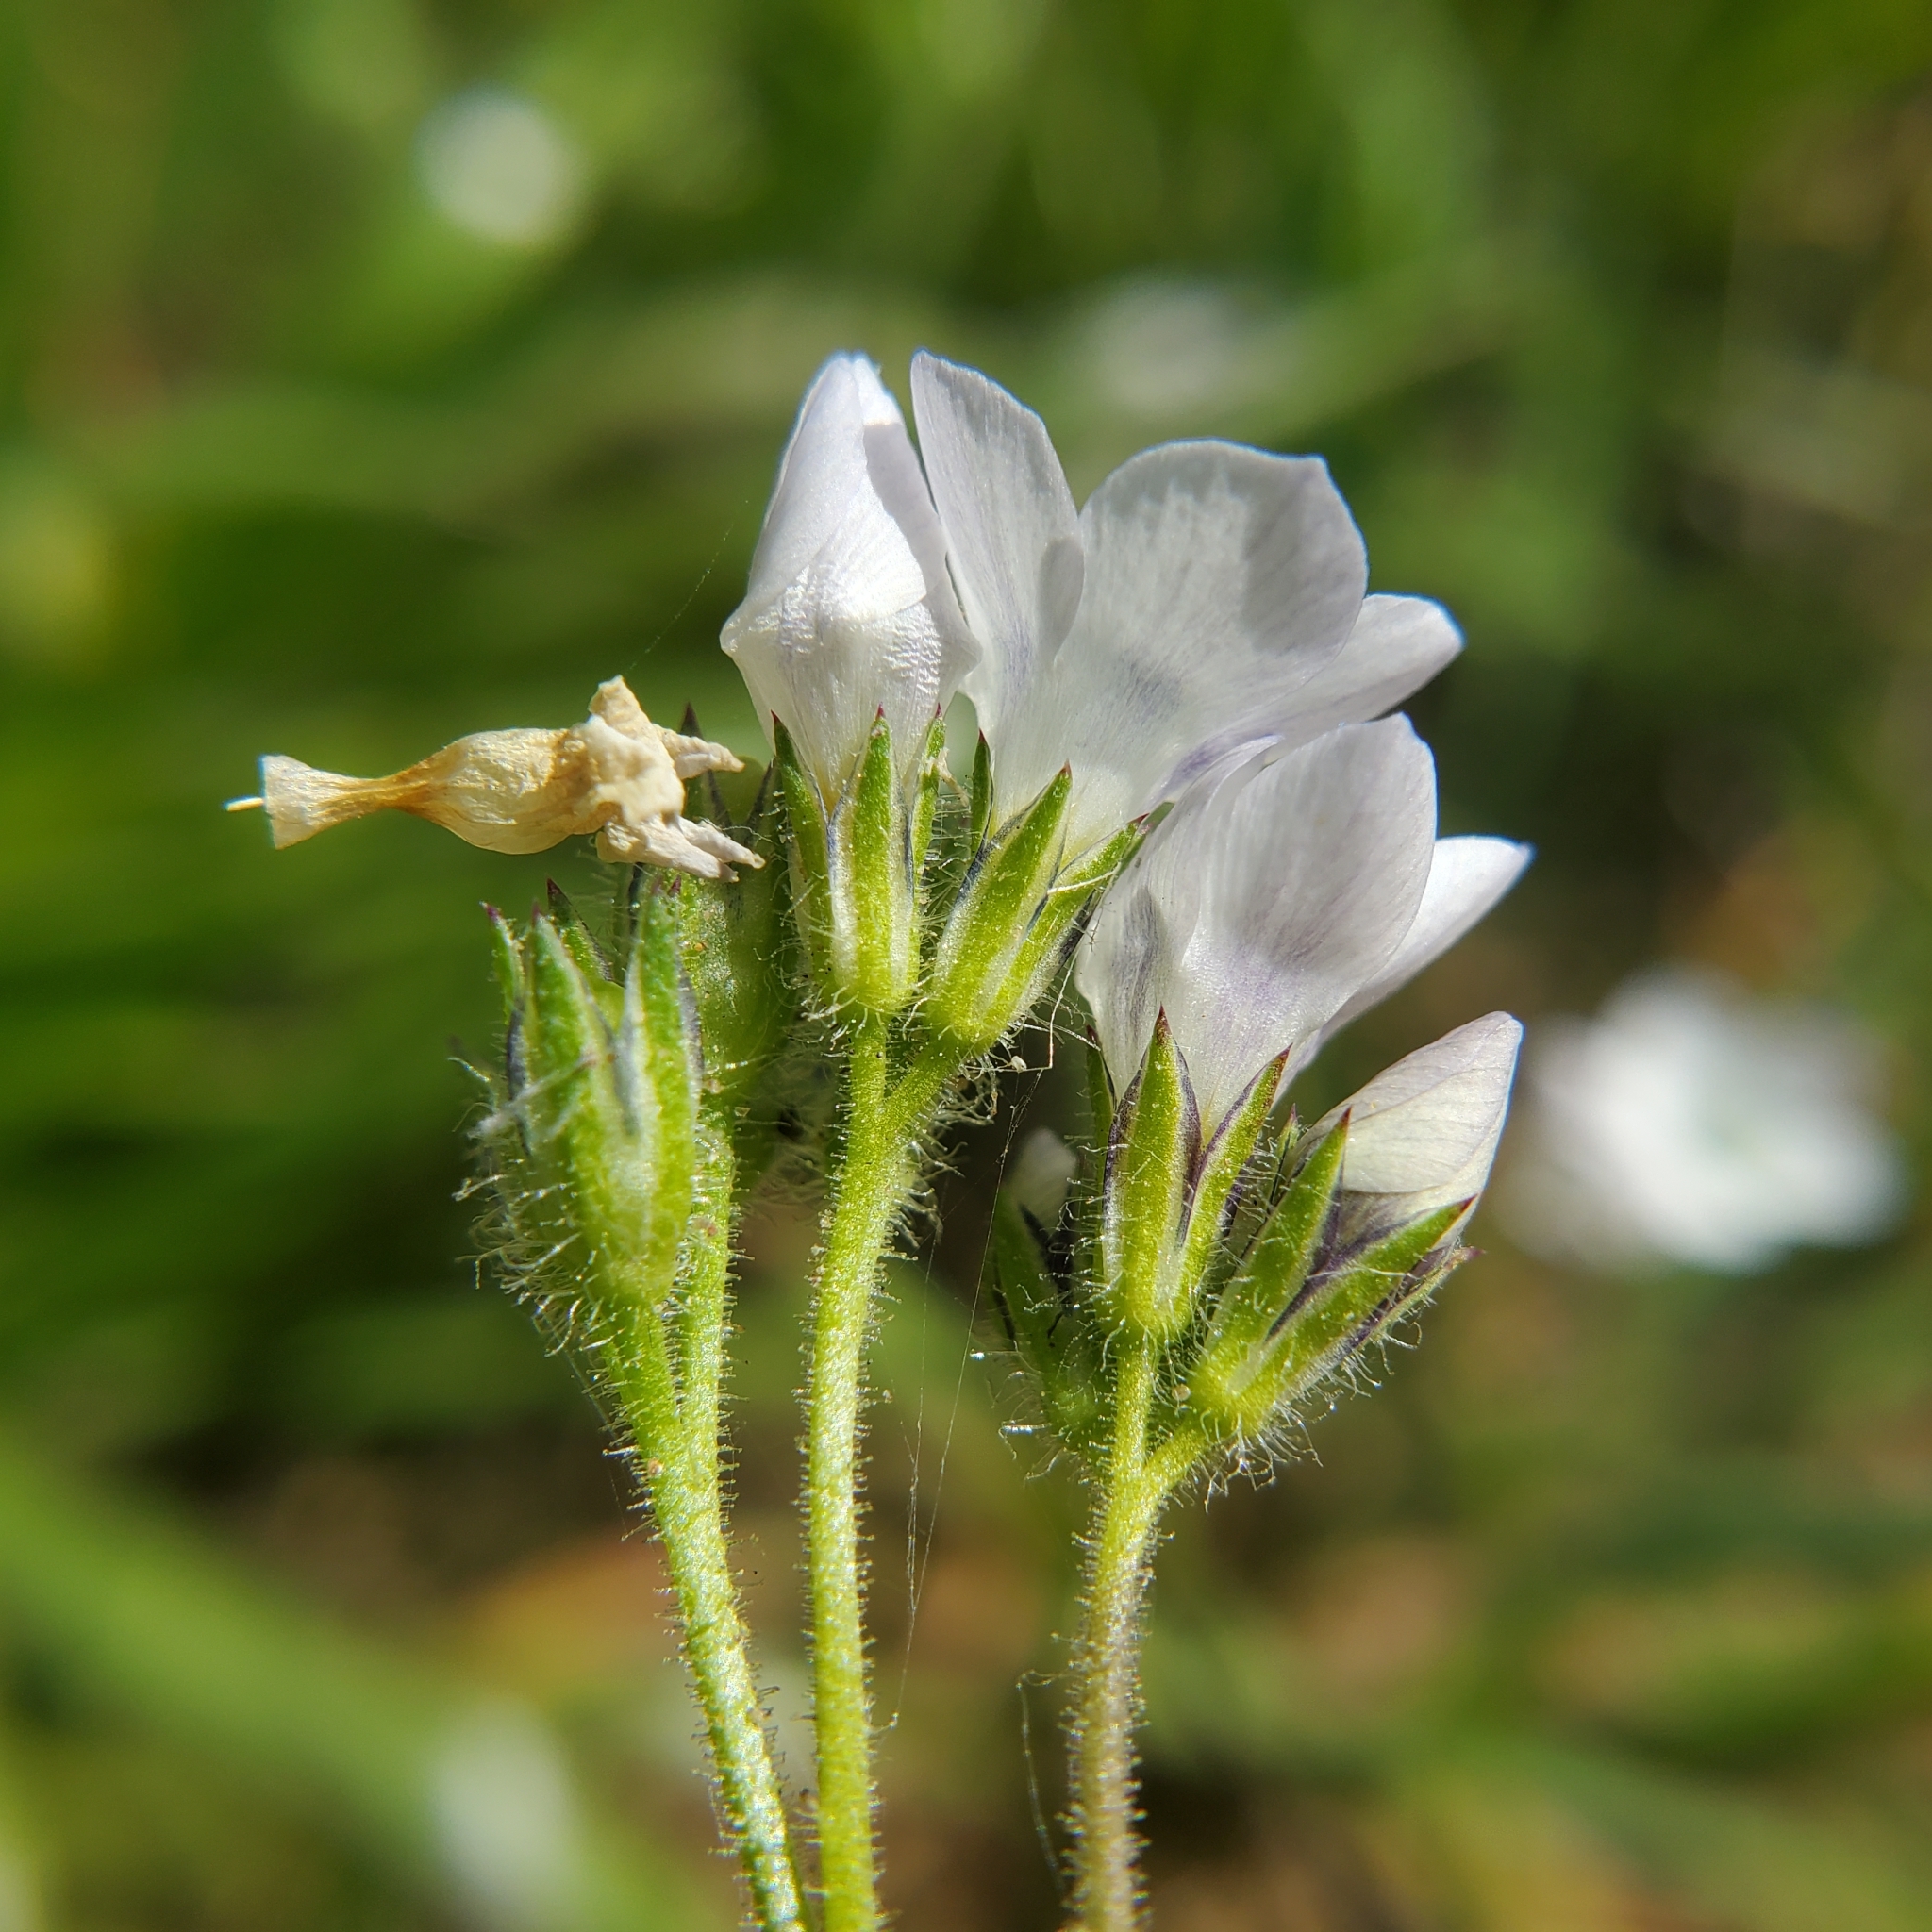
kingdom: Plantae
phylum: Tracheophyta
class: Magnoliopsida
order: Ericales
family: Polemoniaceae
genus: Gilia
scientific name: Gilia angelensis
